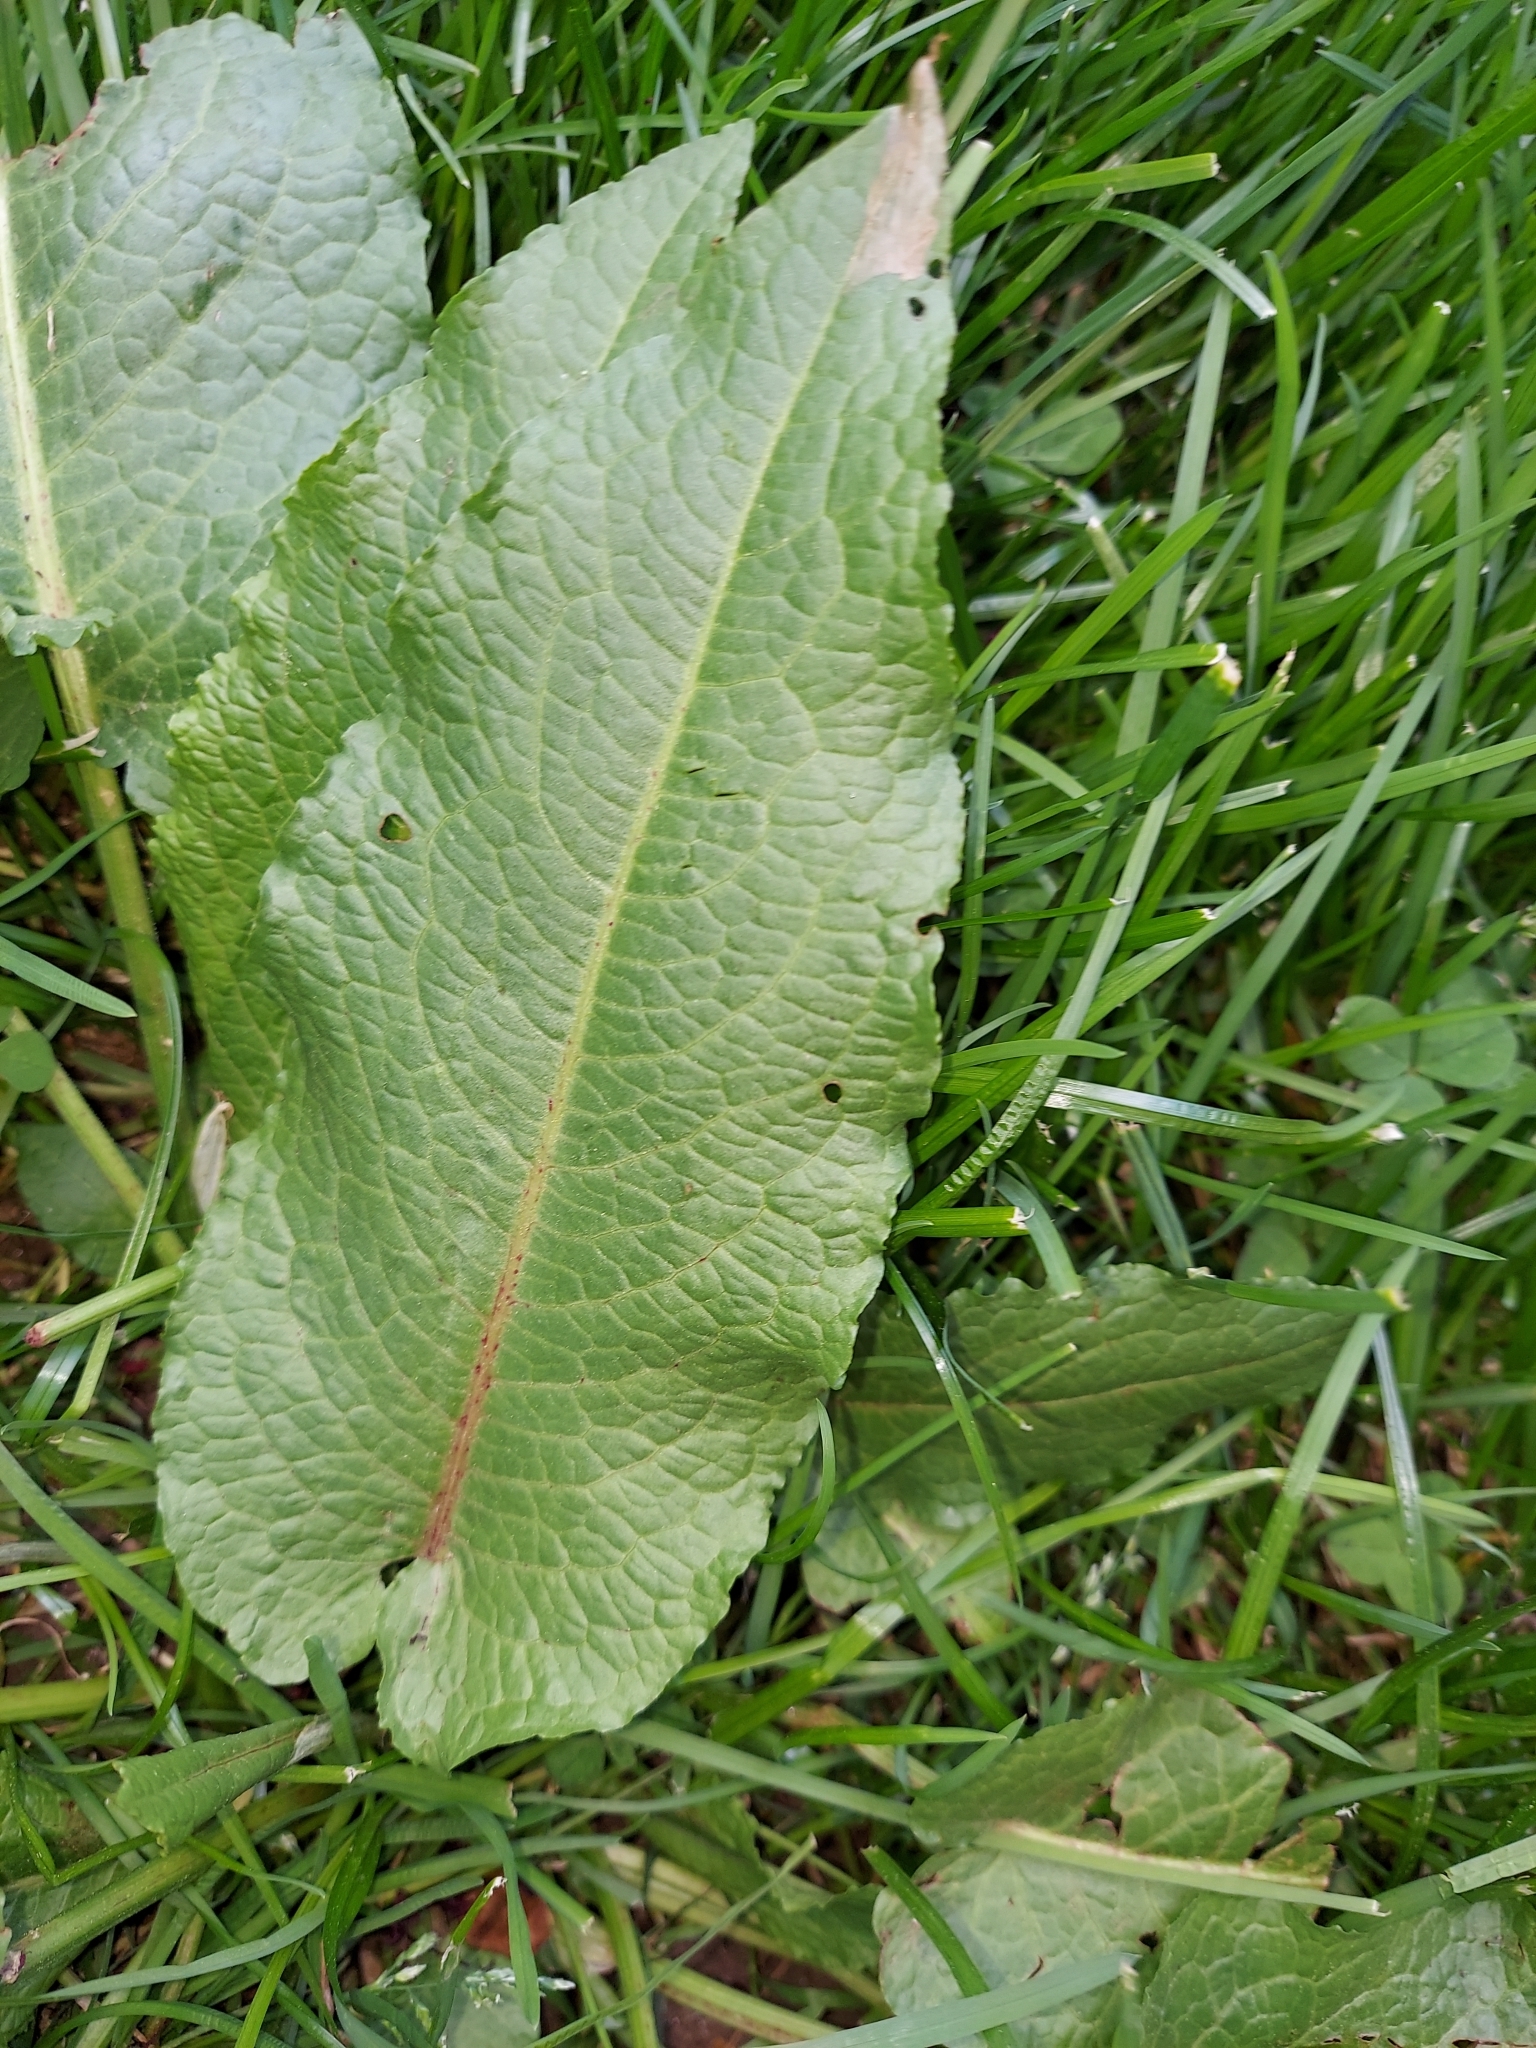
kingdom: Plantae
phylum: Tracheophyta
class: Magnoliopsida
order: Caryophyllales
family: Polygonaceae
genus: Rumex
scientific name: Rumex obtusifolius
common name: Bitter dock
